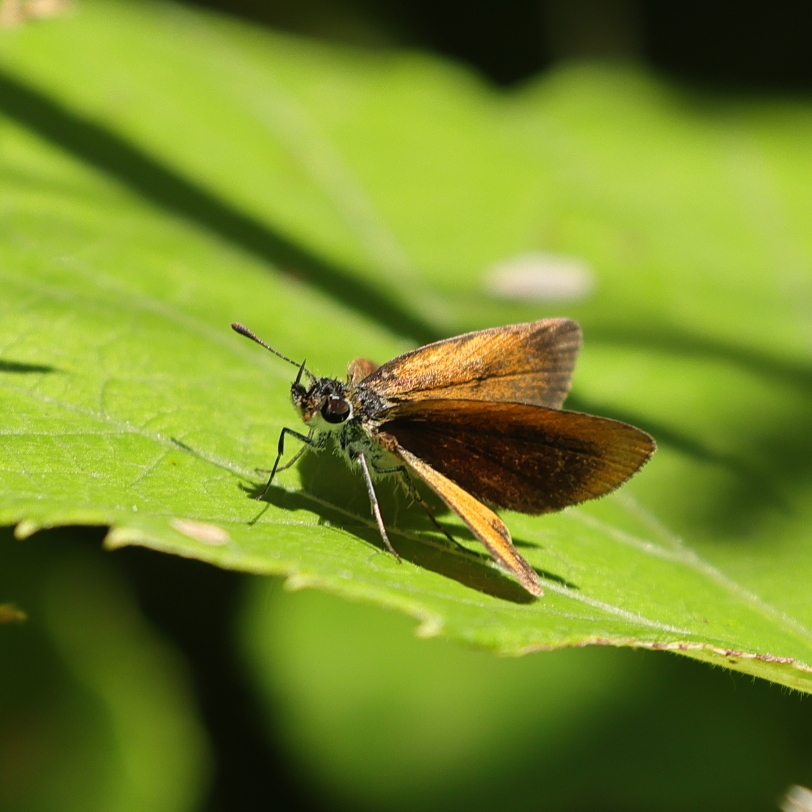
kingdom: Animalia
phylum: Arthropoda
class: Insecta
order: Lepidoptera
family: Hesperiidae
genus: Ancyloxypha
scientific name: Ancyloxypha numitor
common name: Least skipper
